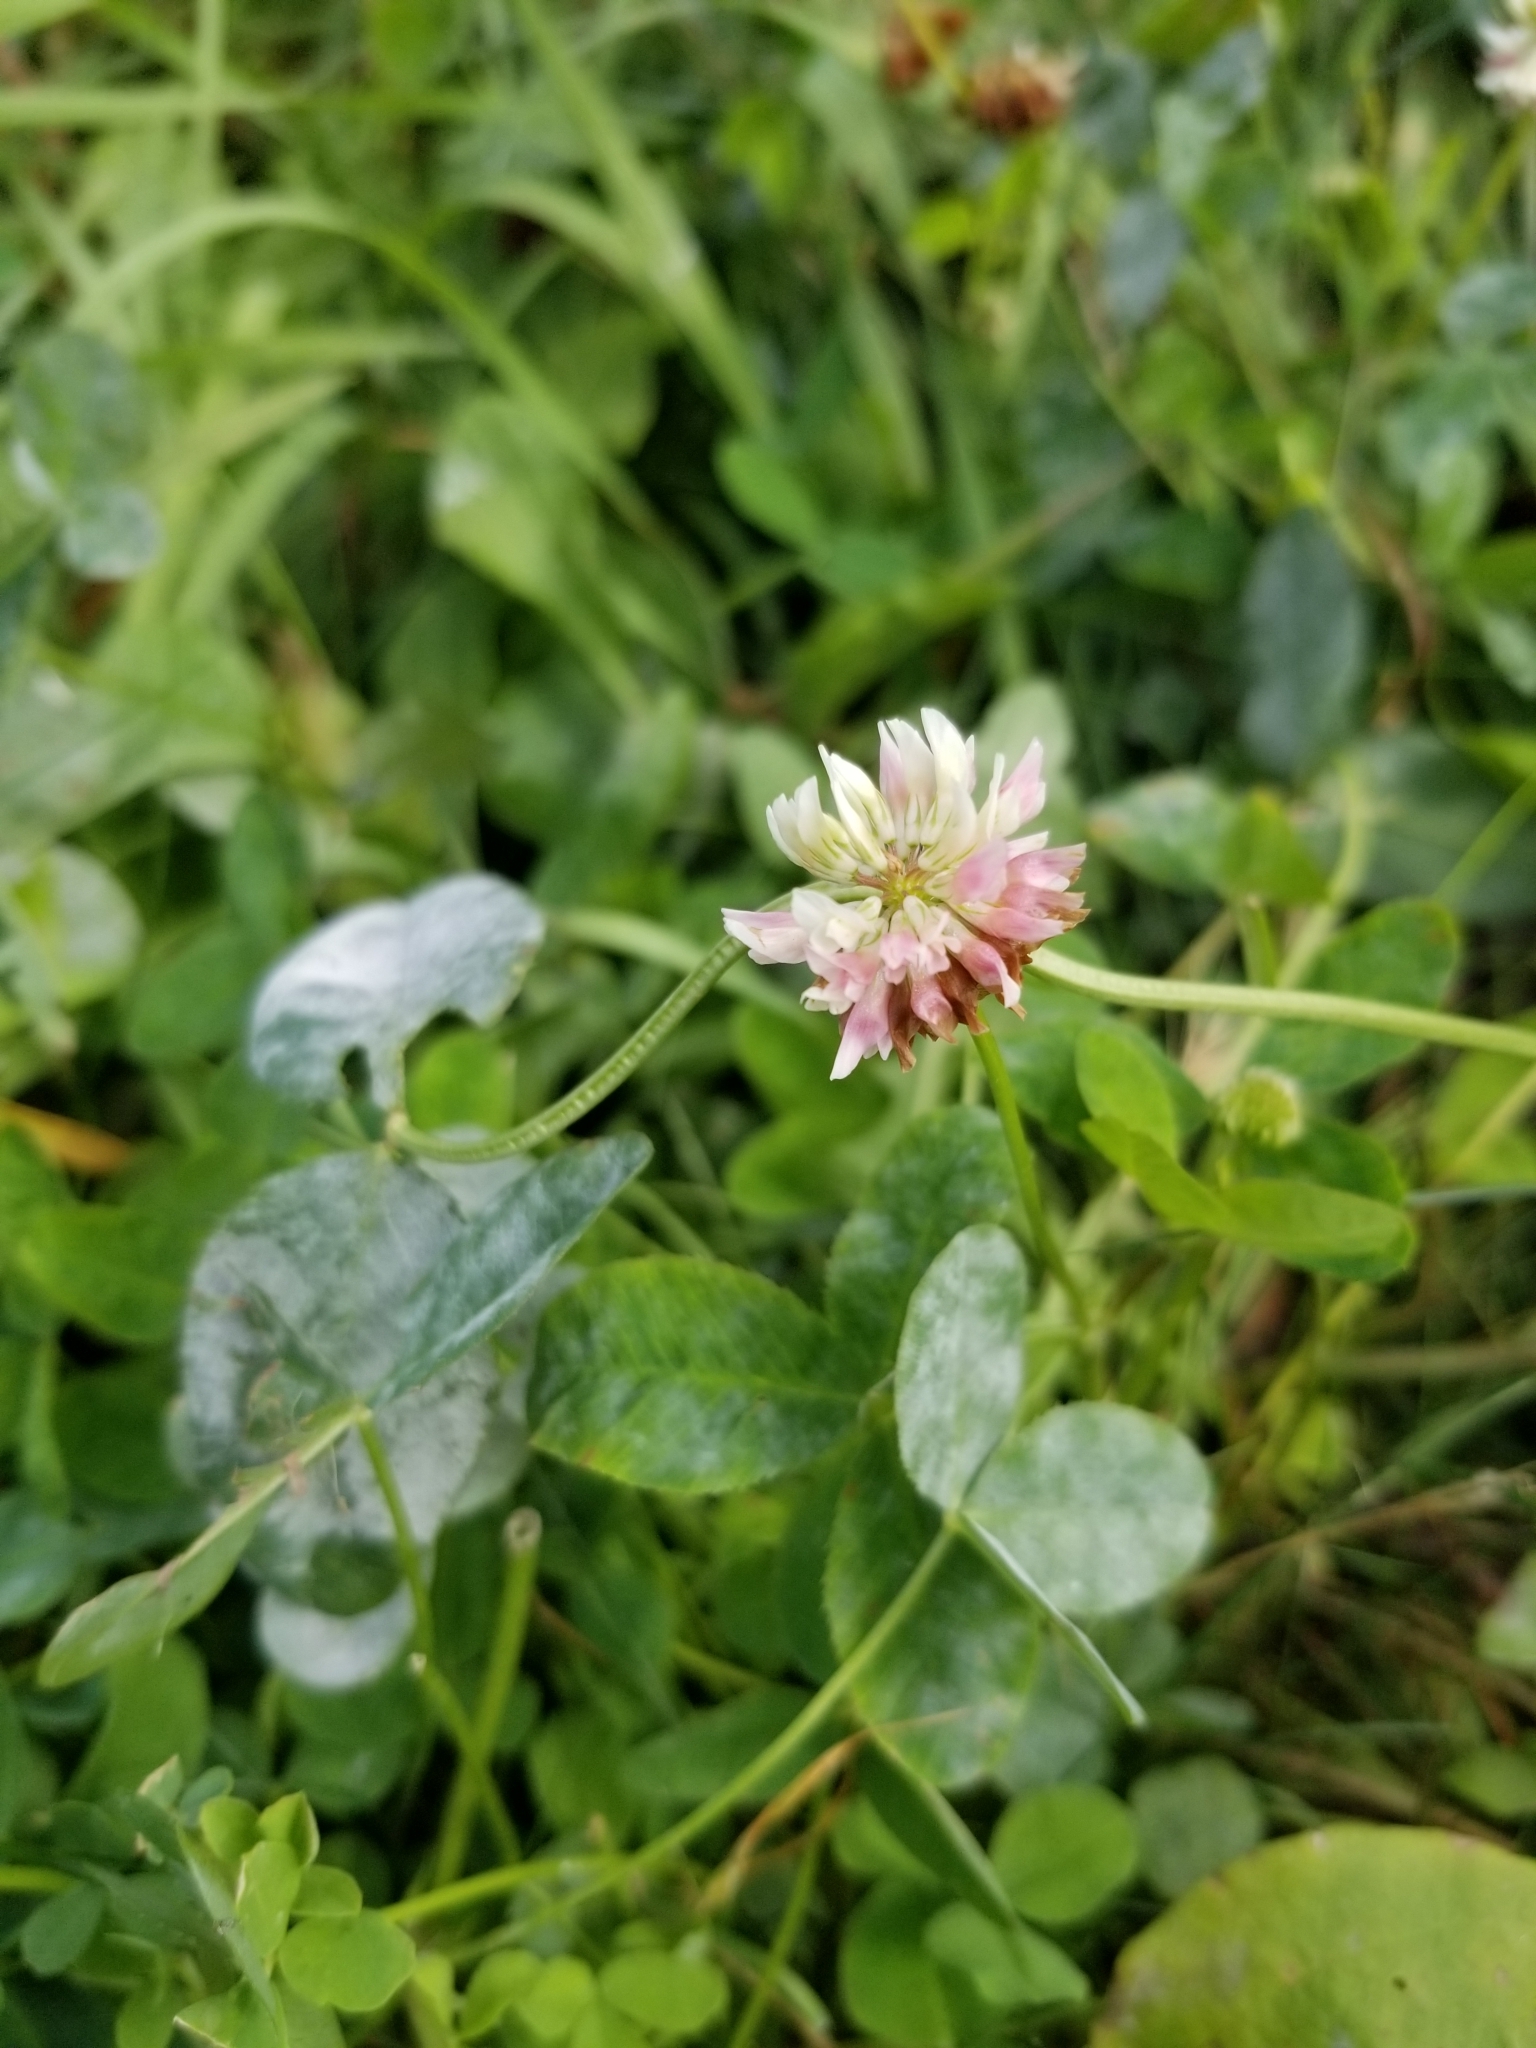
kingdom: Plantae
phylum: Tracheophyta
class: Magnoliopsida
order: Fabales
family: Fabaceae
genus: Trifolium
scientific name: Trifolium hybridum
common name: Alsike clover
